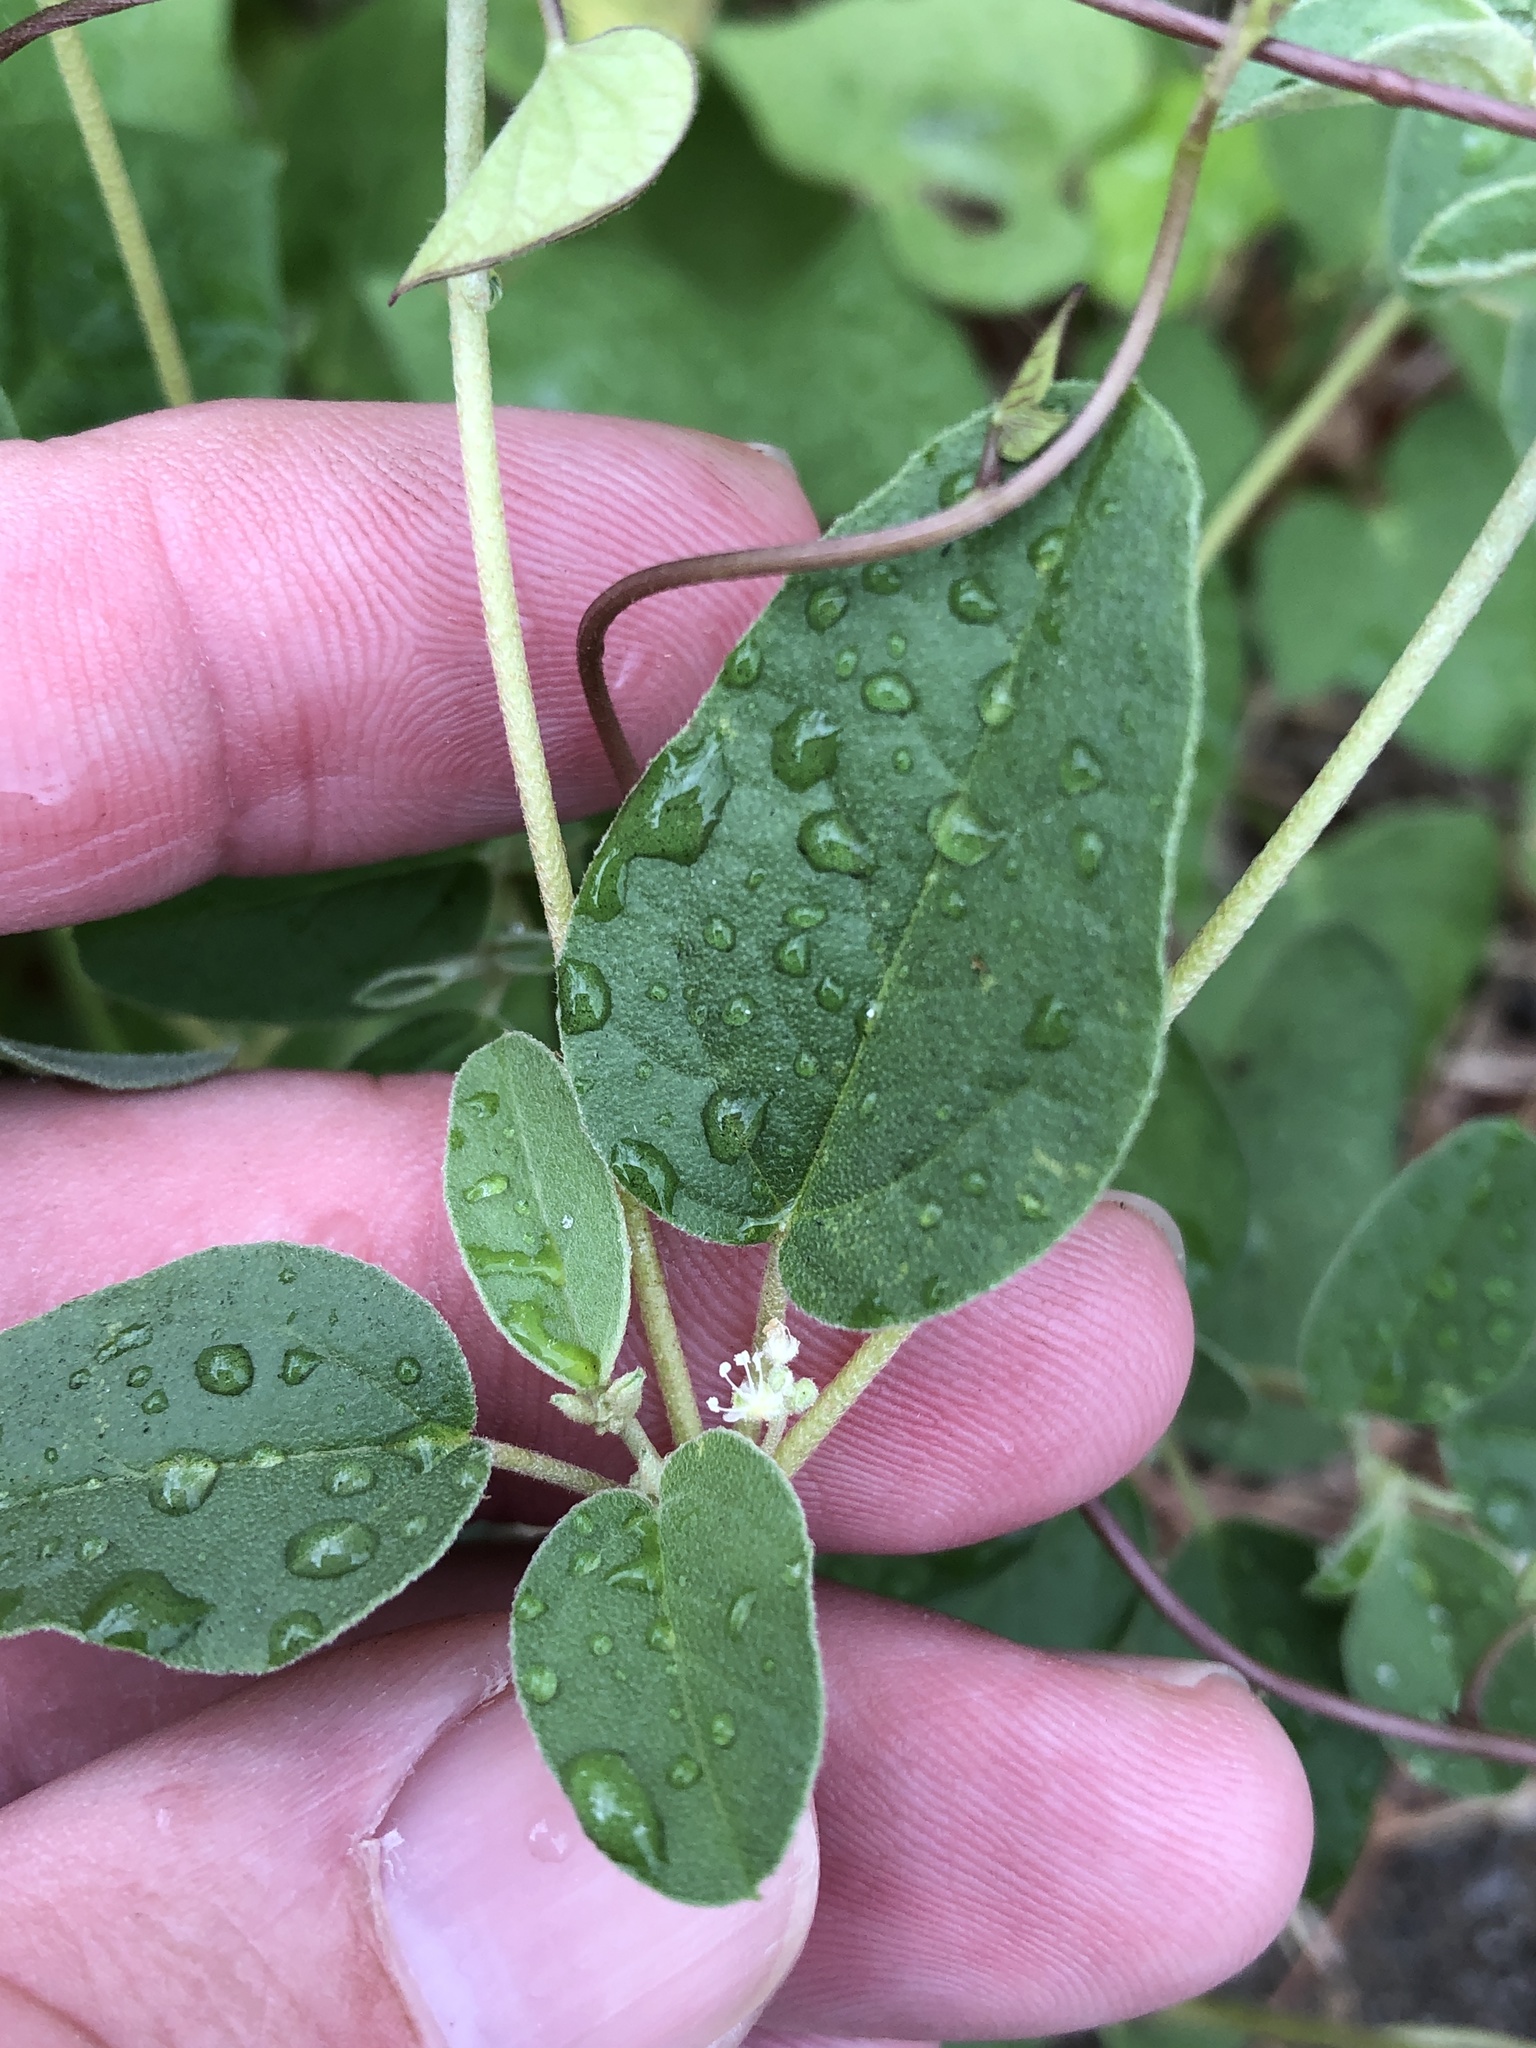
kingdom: Plantae
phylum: Tracheophyta
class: Magnoliopsida
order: Malpighiales
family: Euphorbiaceae
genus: Croton
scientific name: Croton monanthogynus
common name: One-seed croton
